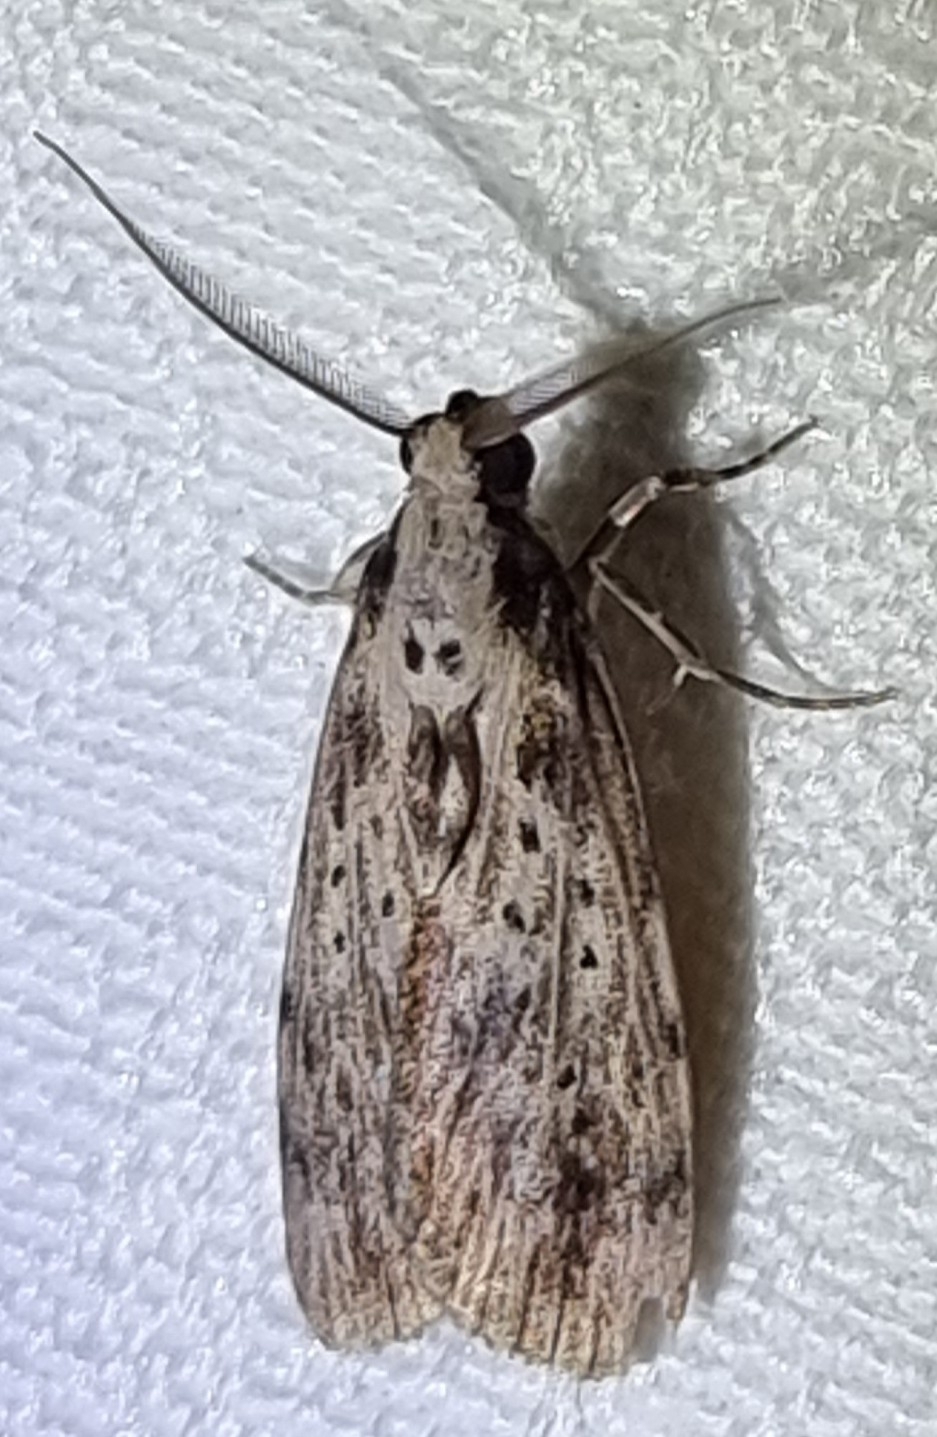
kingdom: Animalia
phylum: Arthropoda
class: Insecta
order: Lepidoptera
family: Erebidae
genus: Digama
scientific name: Digama Sommeria marmorea
